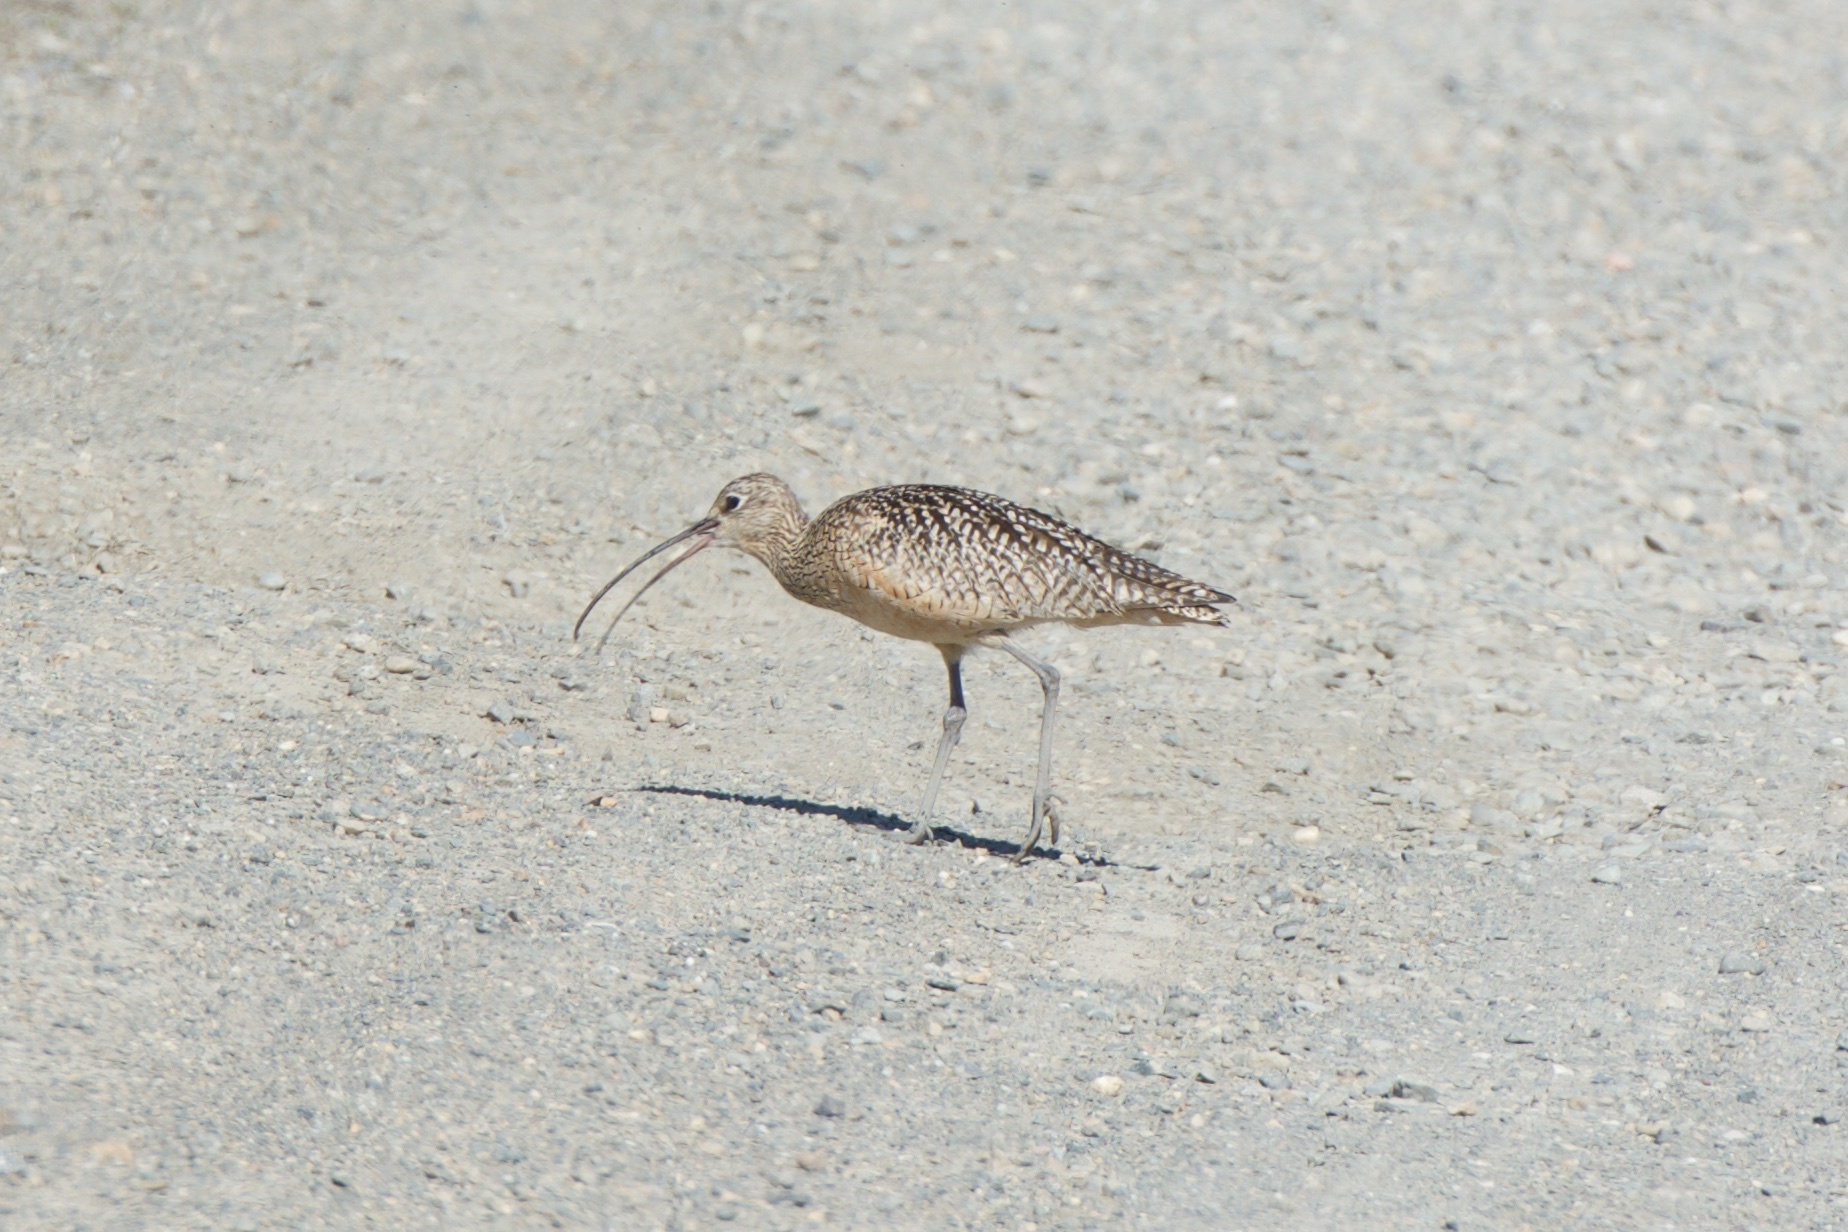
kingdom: Animalia
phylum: Chordata
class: Aves
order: Charadriiformes
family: Scolopacidae
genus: Numenius
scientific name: Numenius americanus
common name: Long-billed curlew
